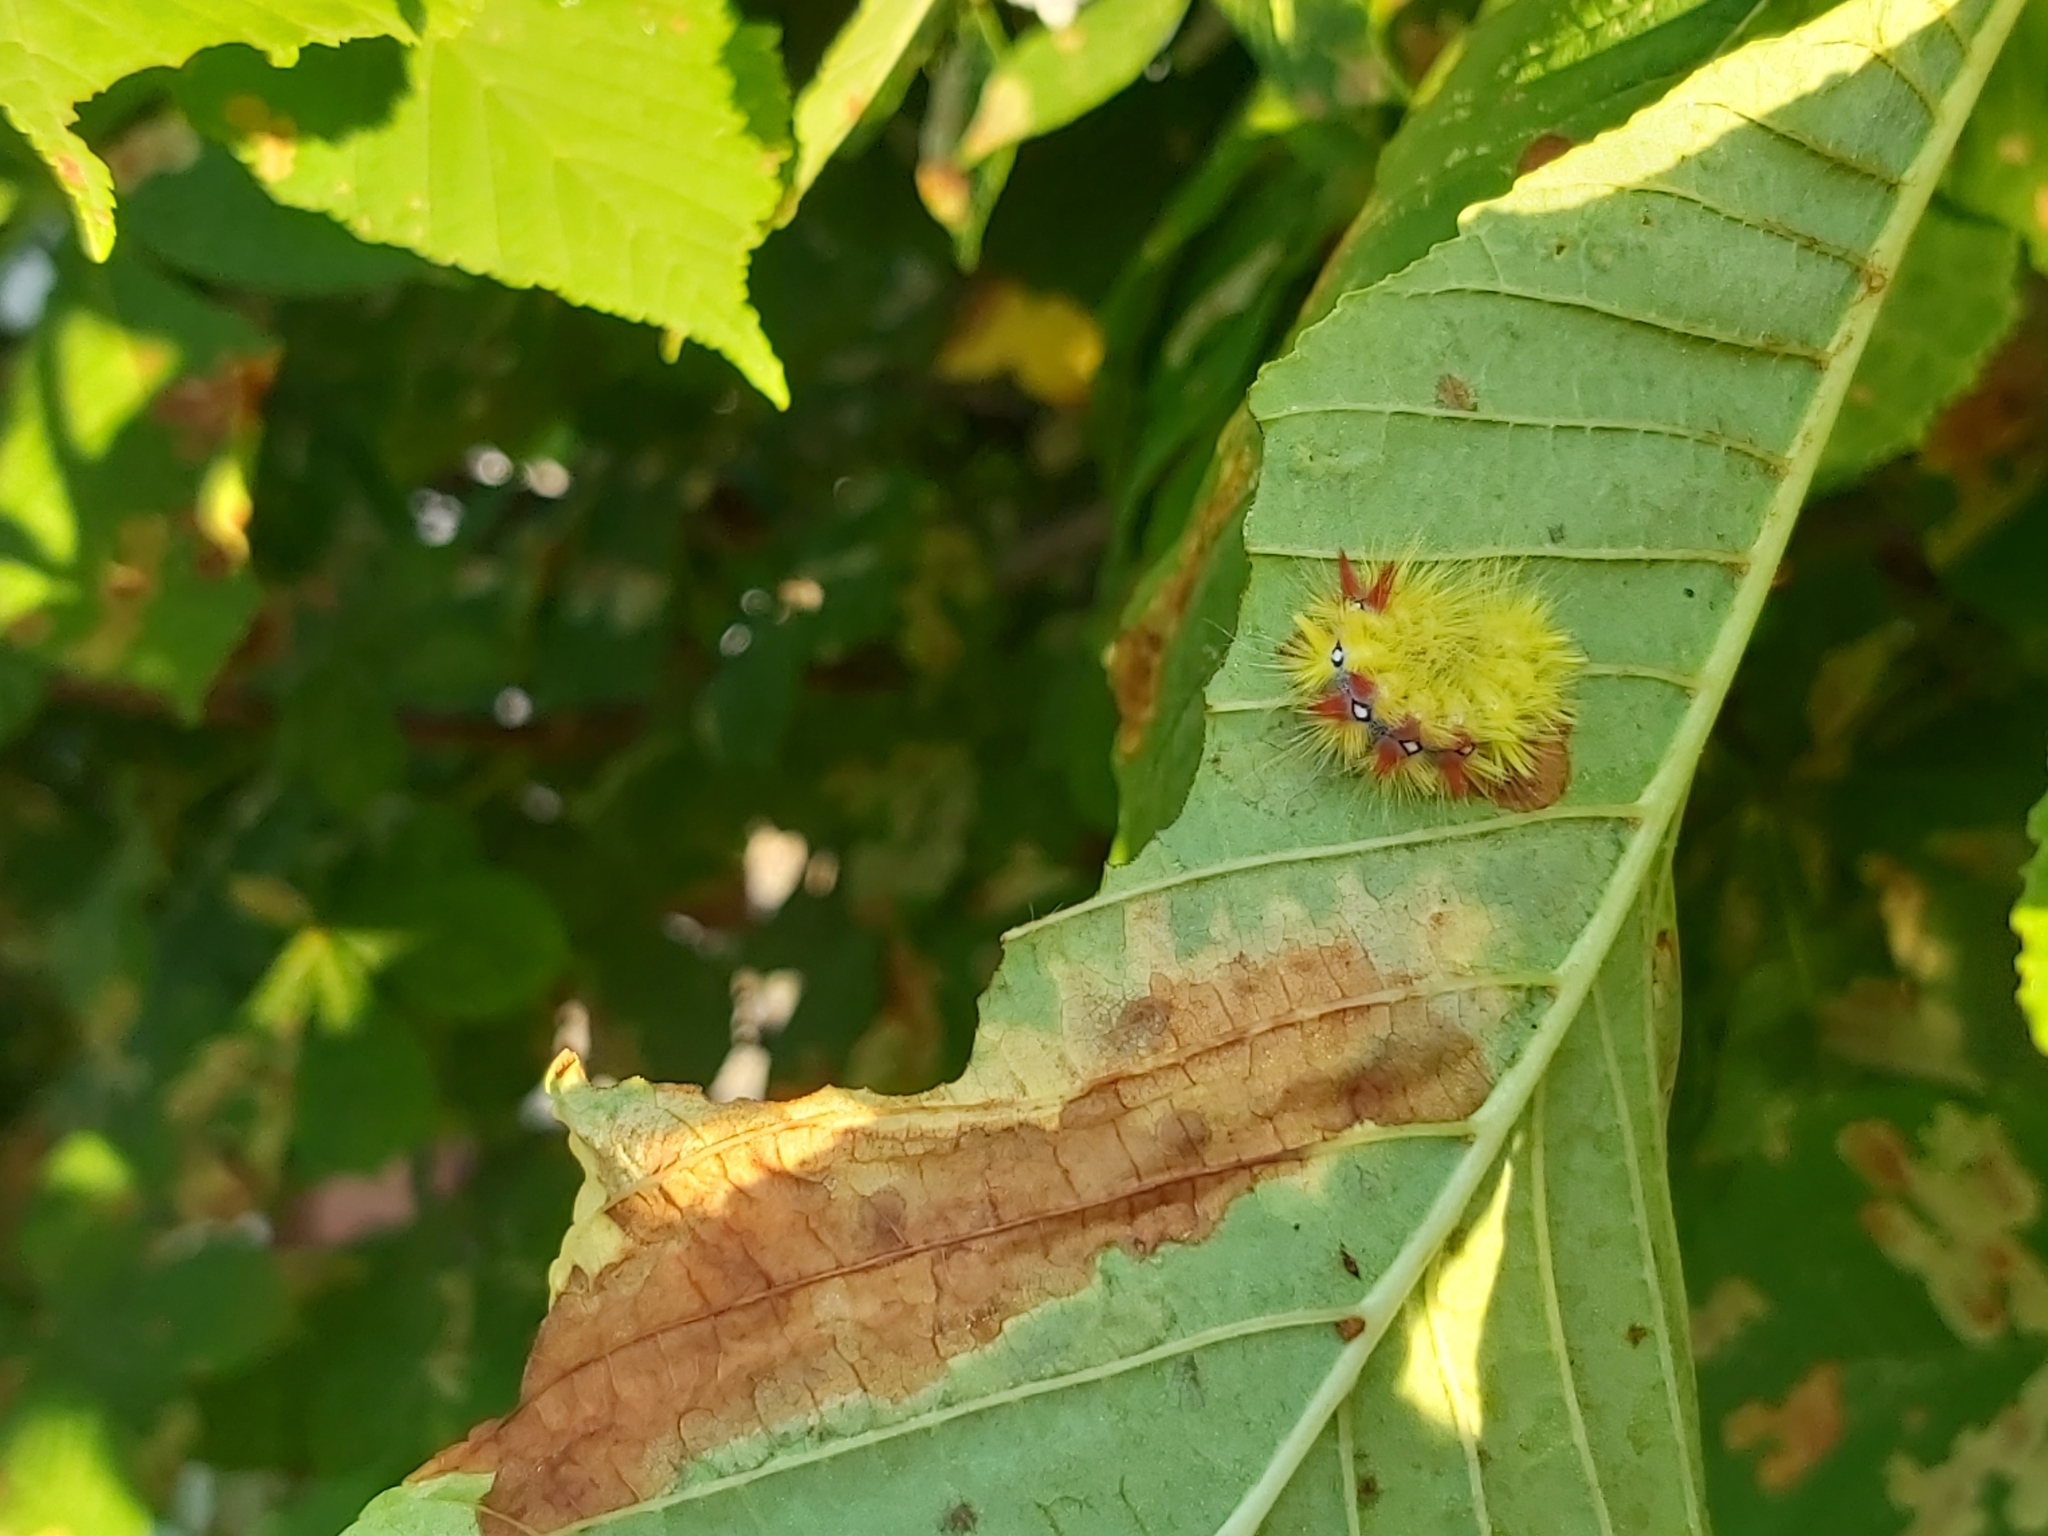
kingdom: Animalia
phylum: Arthropoda
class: Insecta
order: Lepidoptera
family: Noctuidae
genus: Acronicta
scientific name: Acronicta aceris
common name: Sycamore
